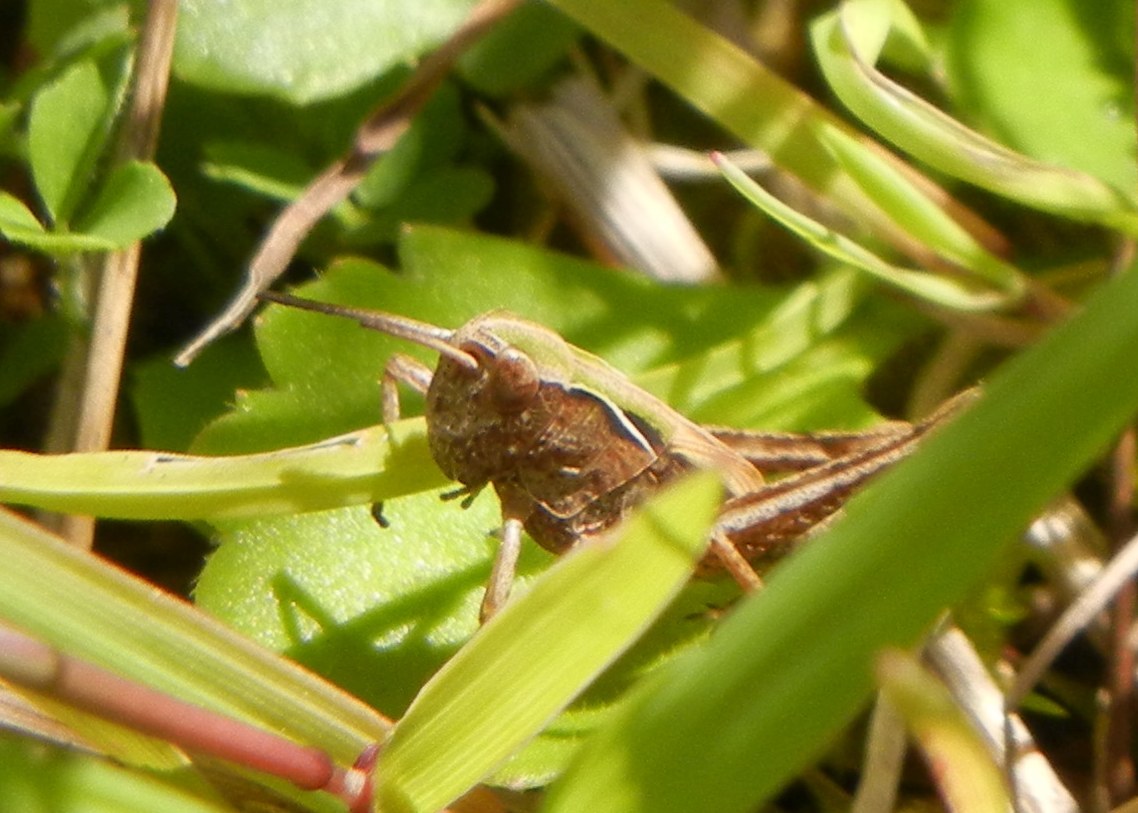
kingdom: Animalia
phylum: Arthropoda
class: Insecta
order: Orthoptera
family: Acrididae
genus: Omocestus
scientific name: Omocestus viridulus
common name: Common green grasshopper
